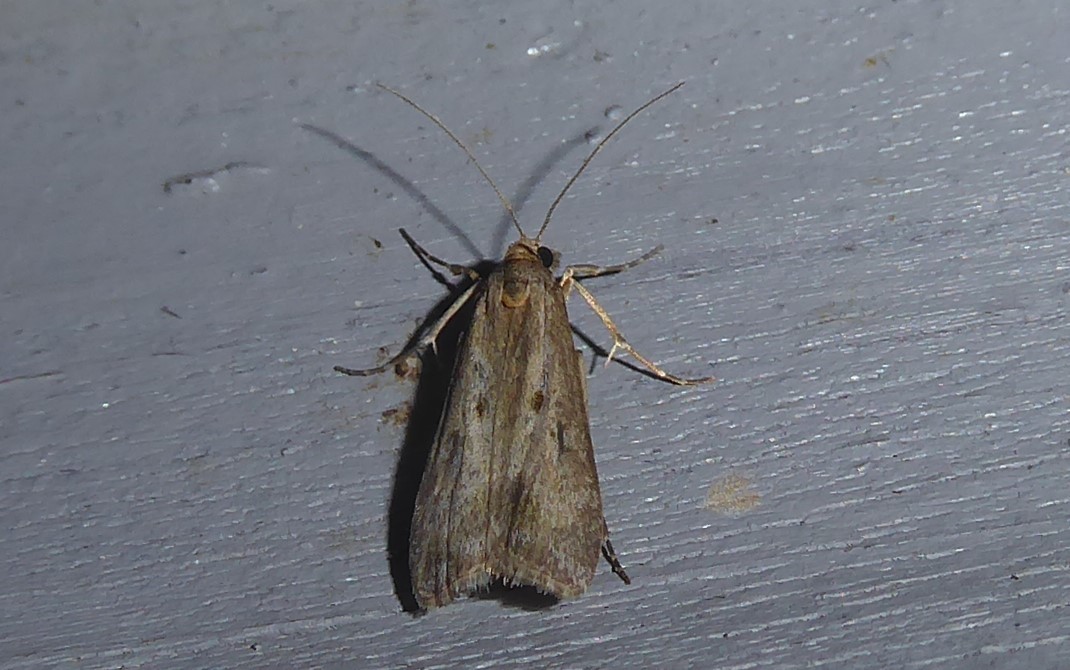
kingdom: Animalia
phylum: Arthropoda
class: Insecta
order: Lepidoptera
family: Crambidae
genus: Eudonia
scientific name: Eudonia leptalea
